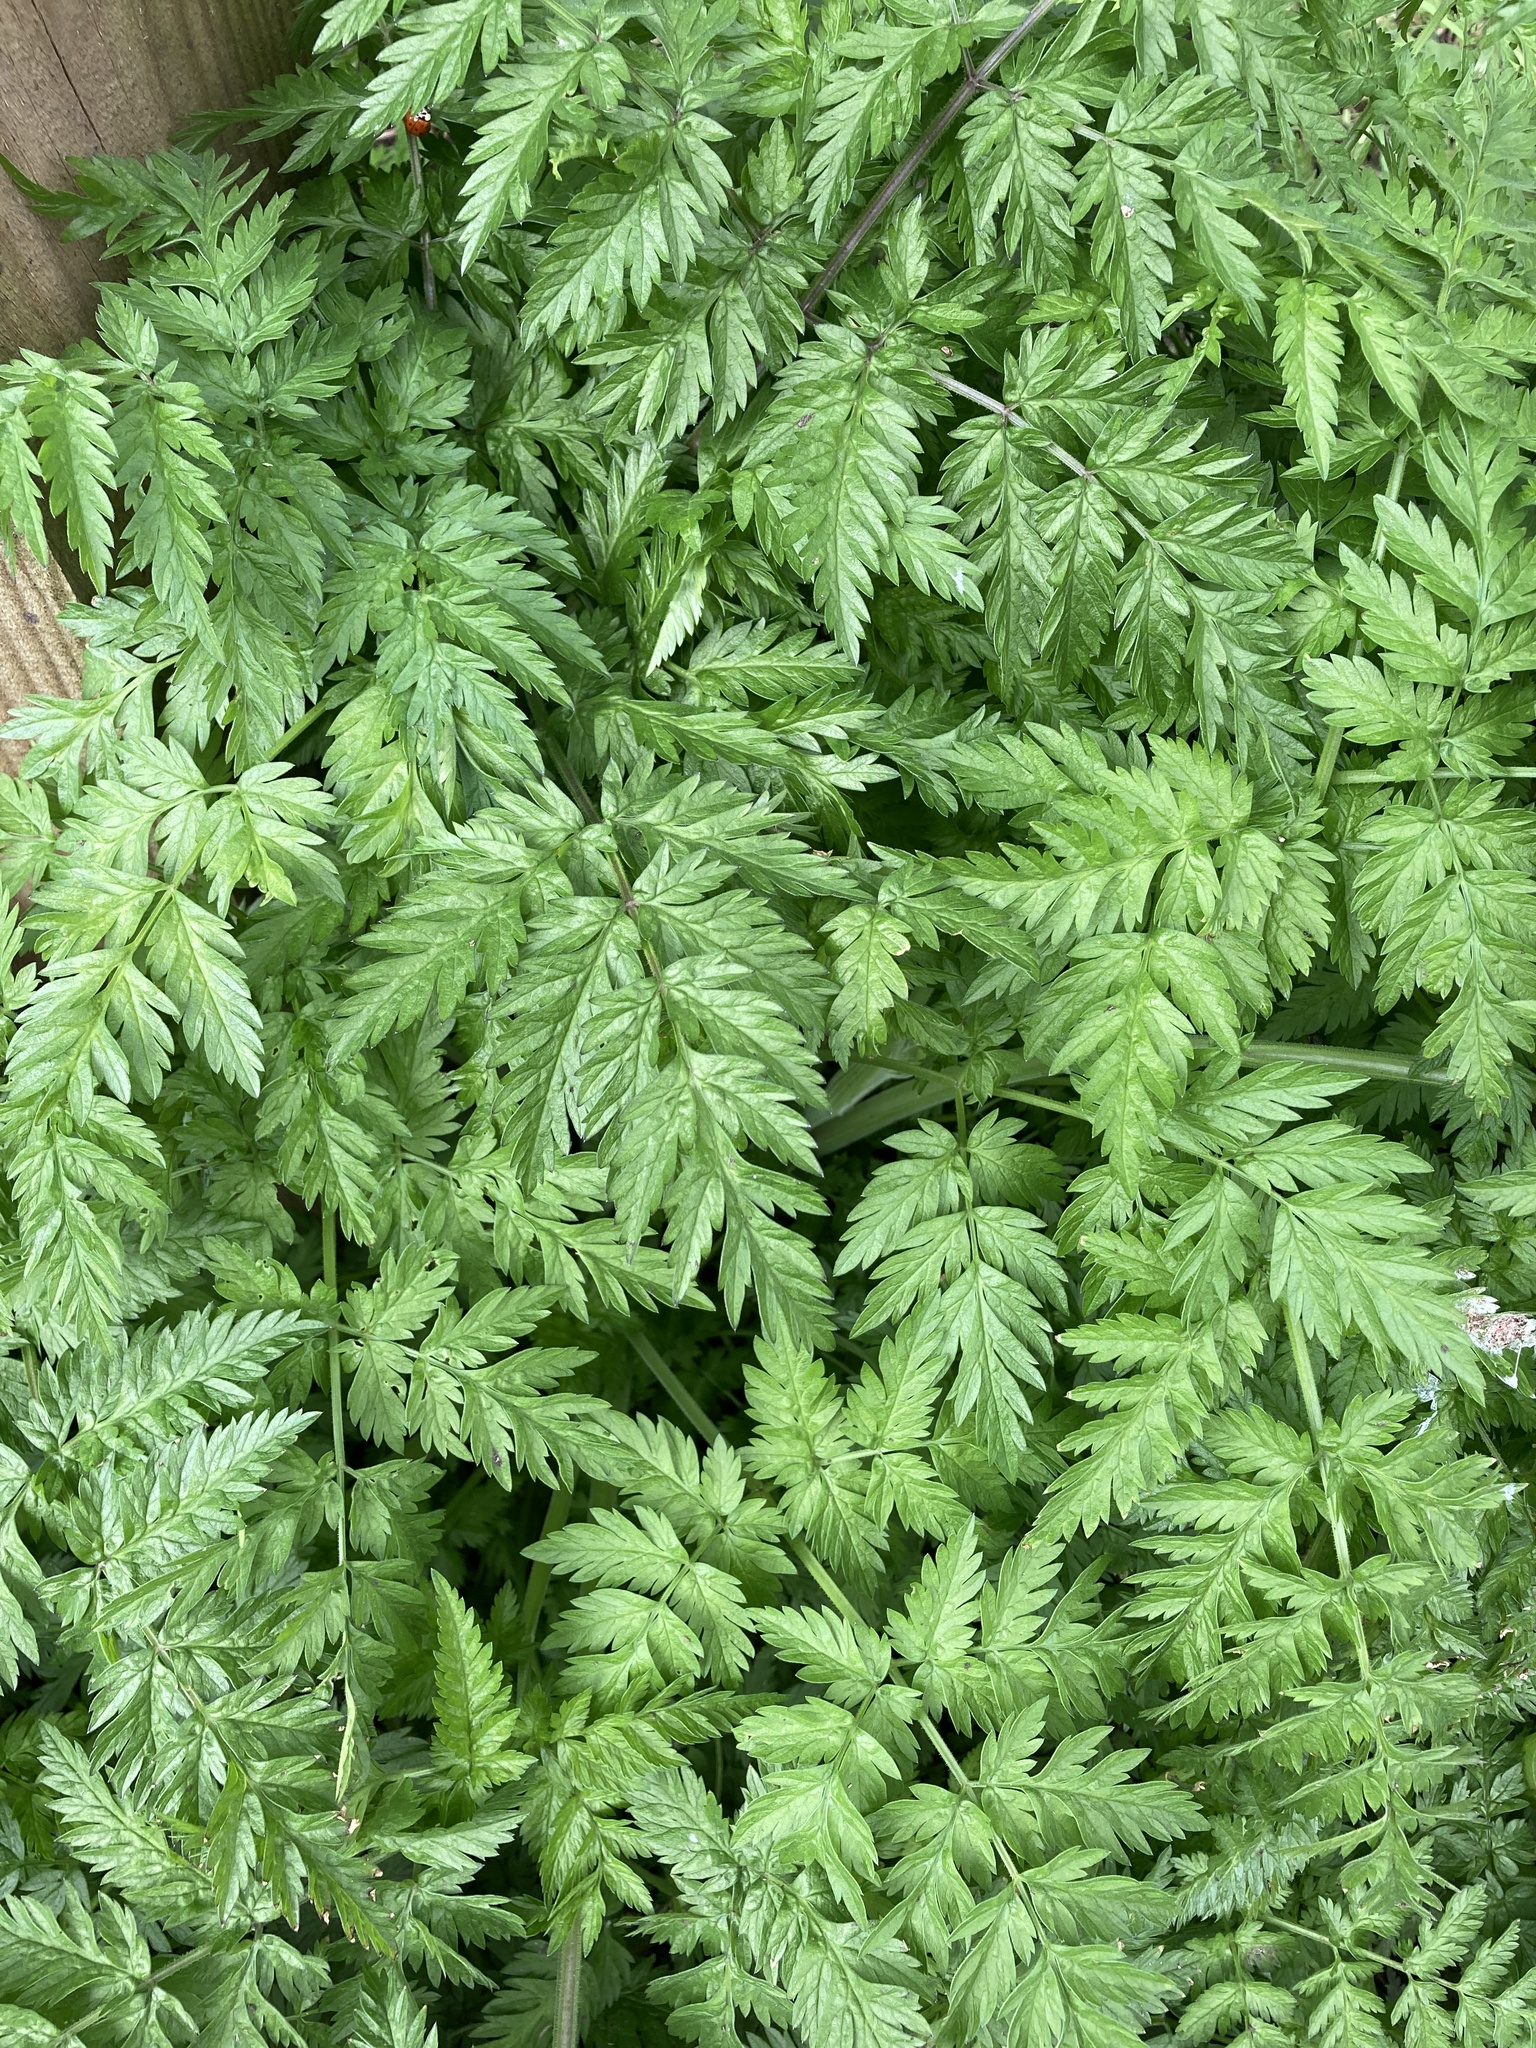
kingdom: Plantae
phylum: Tracheophyta
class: Magnoliopsida
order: Apiales
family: Apiaceae
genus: Anthriscus
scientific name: Anthriscus sylvestris
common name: Cow parsley
